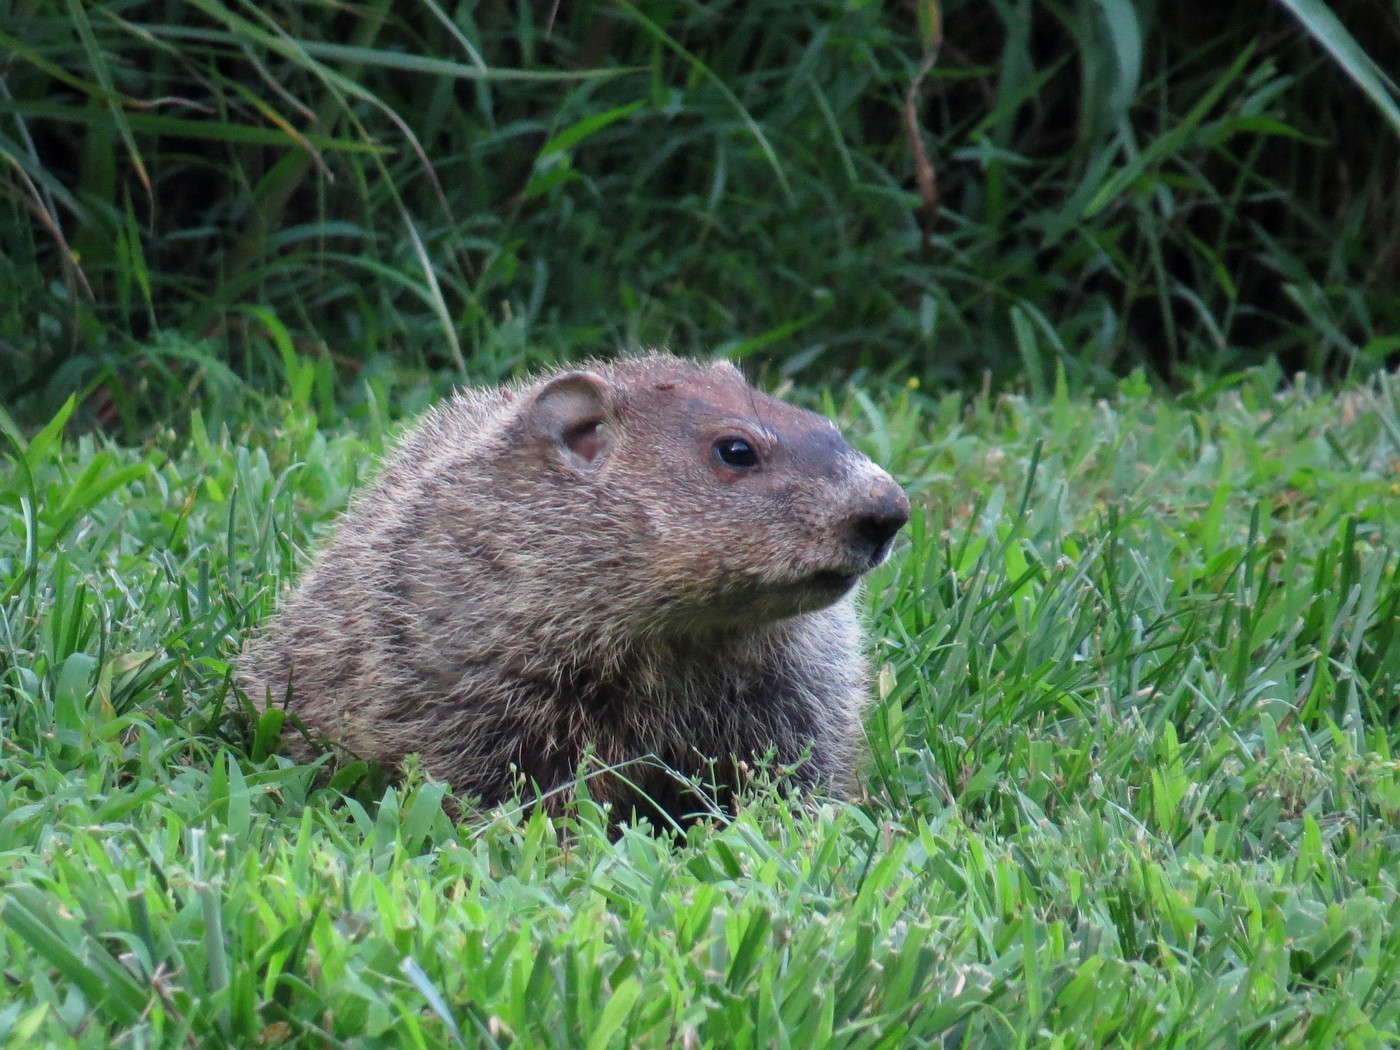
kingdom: Animalia
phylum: Chordata
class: Mammalia
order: Rodentia
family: Sciuridae
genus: Marmota
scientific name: Marmota monax
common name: Groundhog
